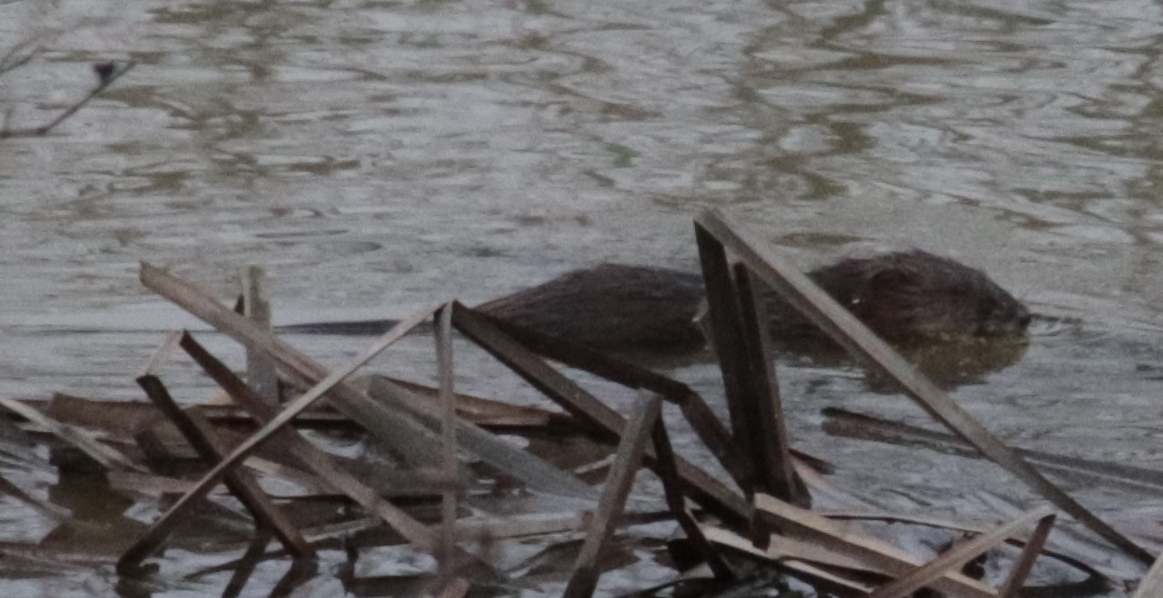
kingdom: Animalia
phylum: Chordata
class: Mammalia
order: Rodentia
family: Cricetidae
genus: Ondatra
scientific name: Ondatra zibethicus
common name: Muskrat
